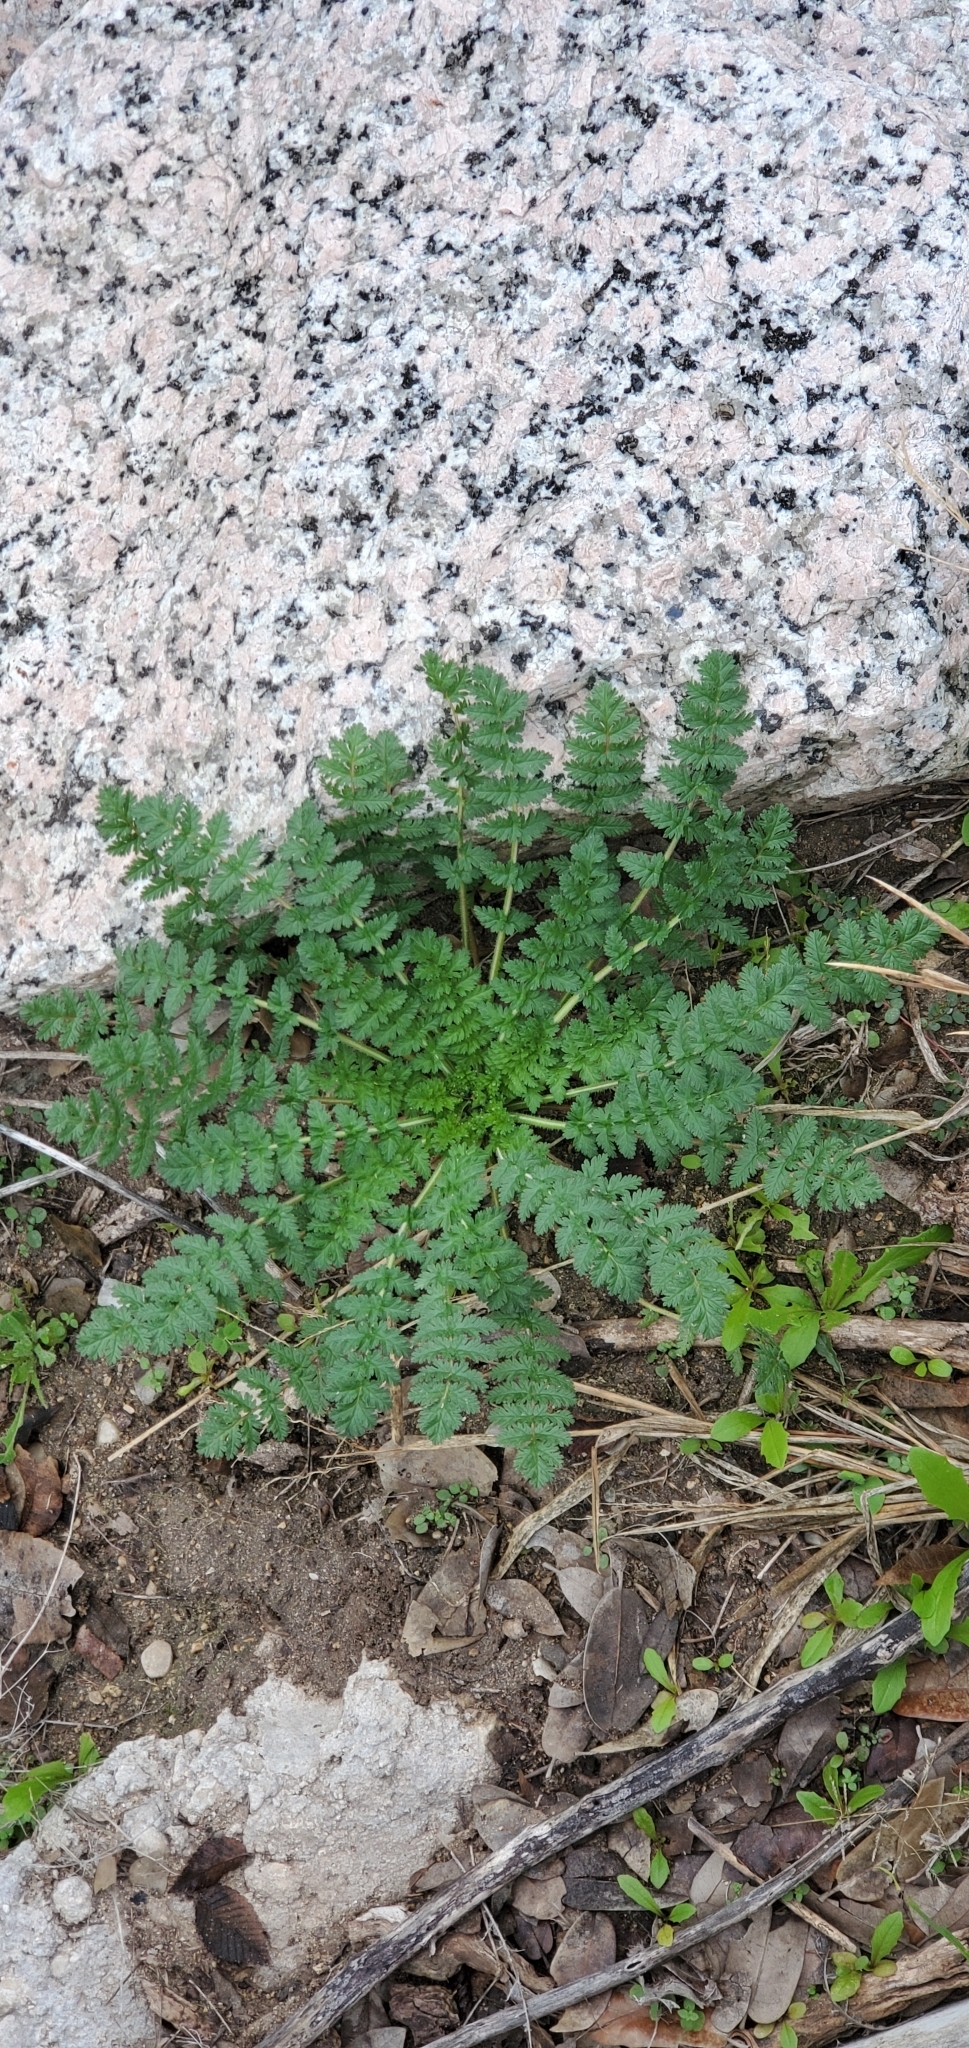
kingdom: Plantae
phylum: Tracheophyta
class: Magnoliopsida
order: Geraniales
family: Geraniaceae
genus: Erodium
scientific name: Erodium cicutarium
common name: Common stork's-bill
